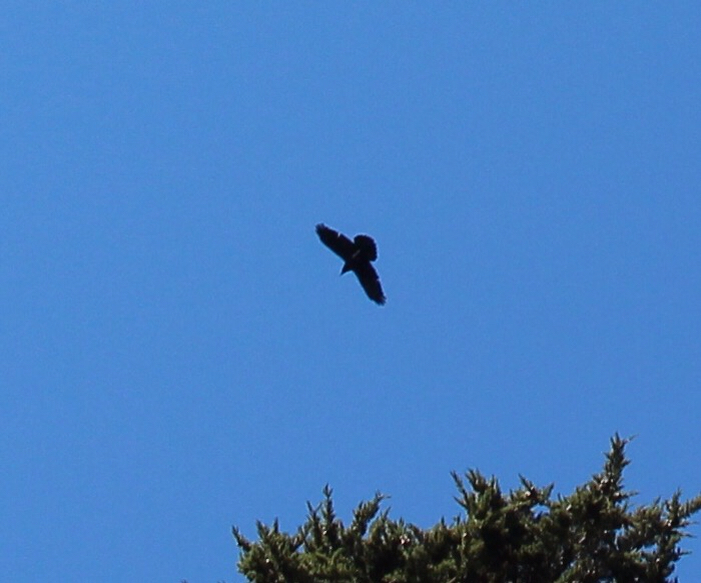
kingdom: Animalia
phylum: Chordata
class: Aves
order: Passeriformes
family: Corvidae
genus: Corvus
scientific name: Corvus corax
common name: Common raven
